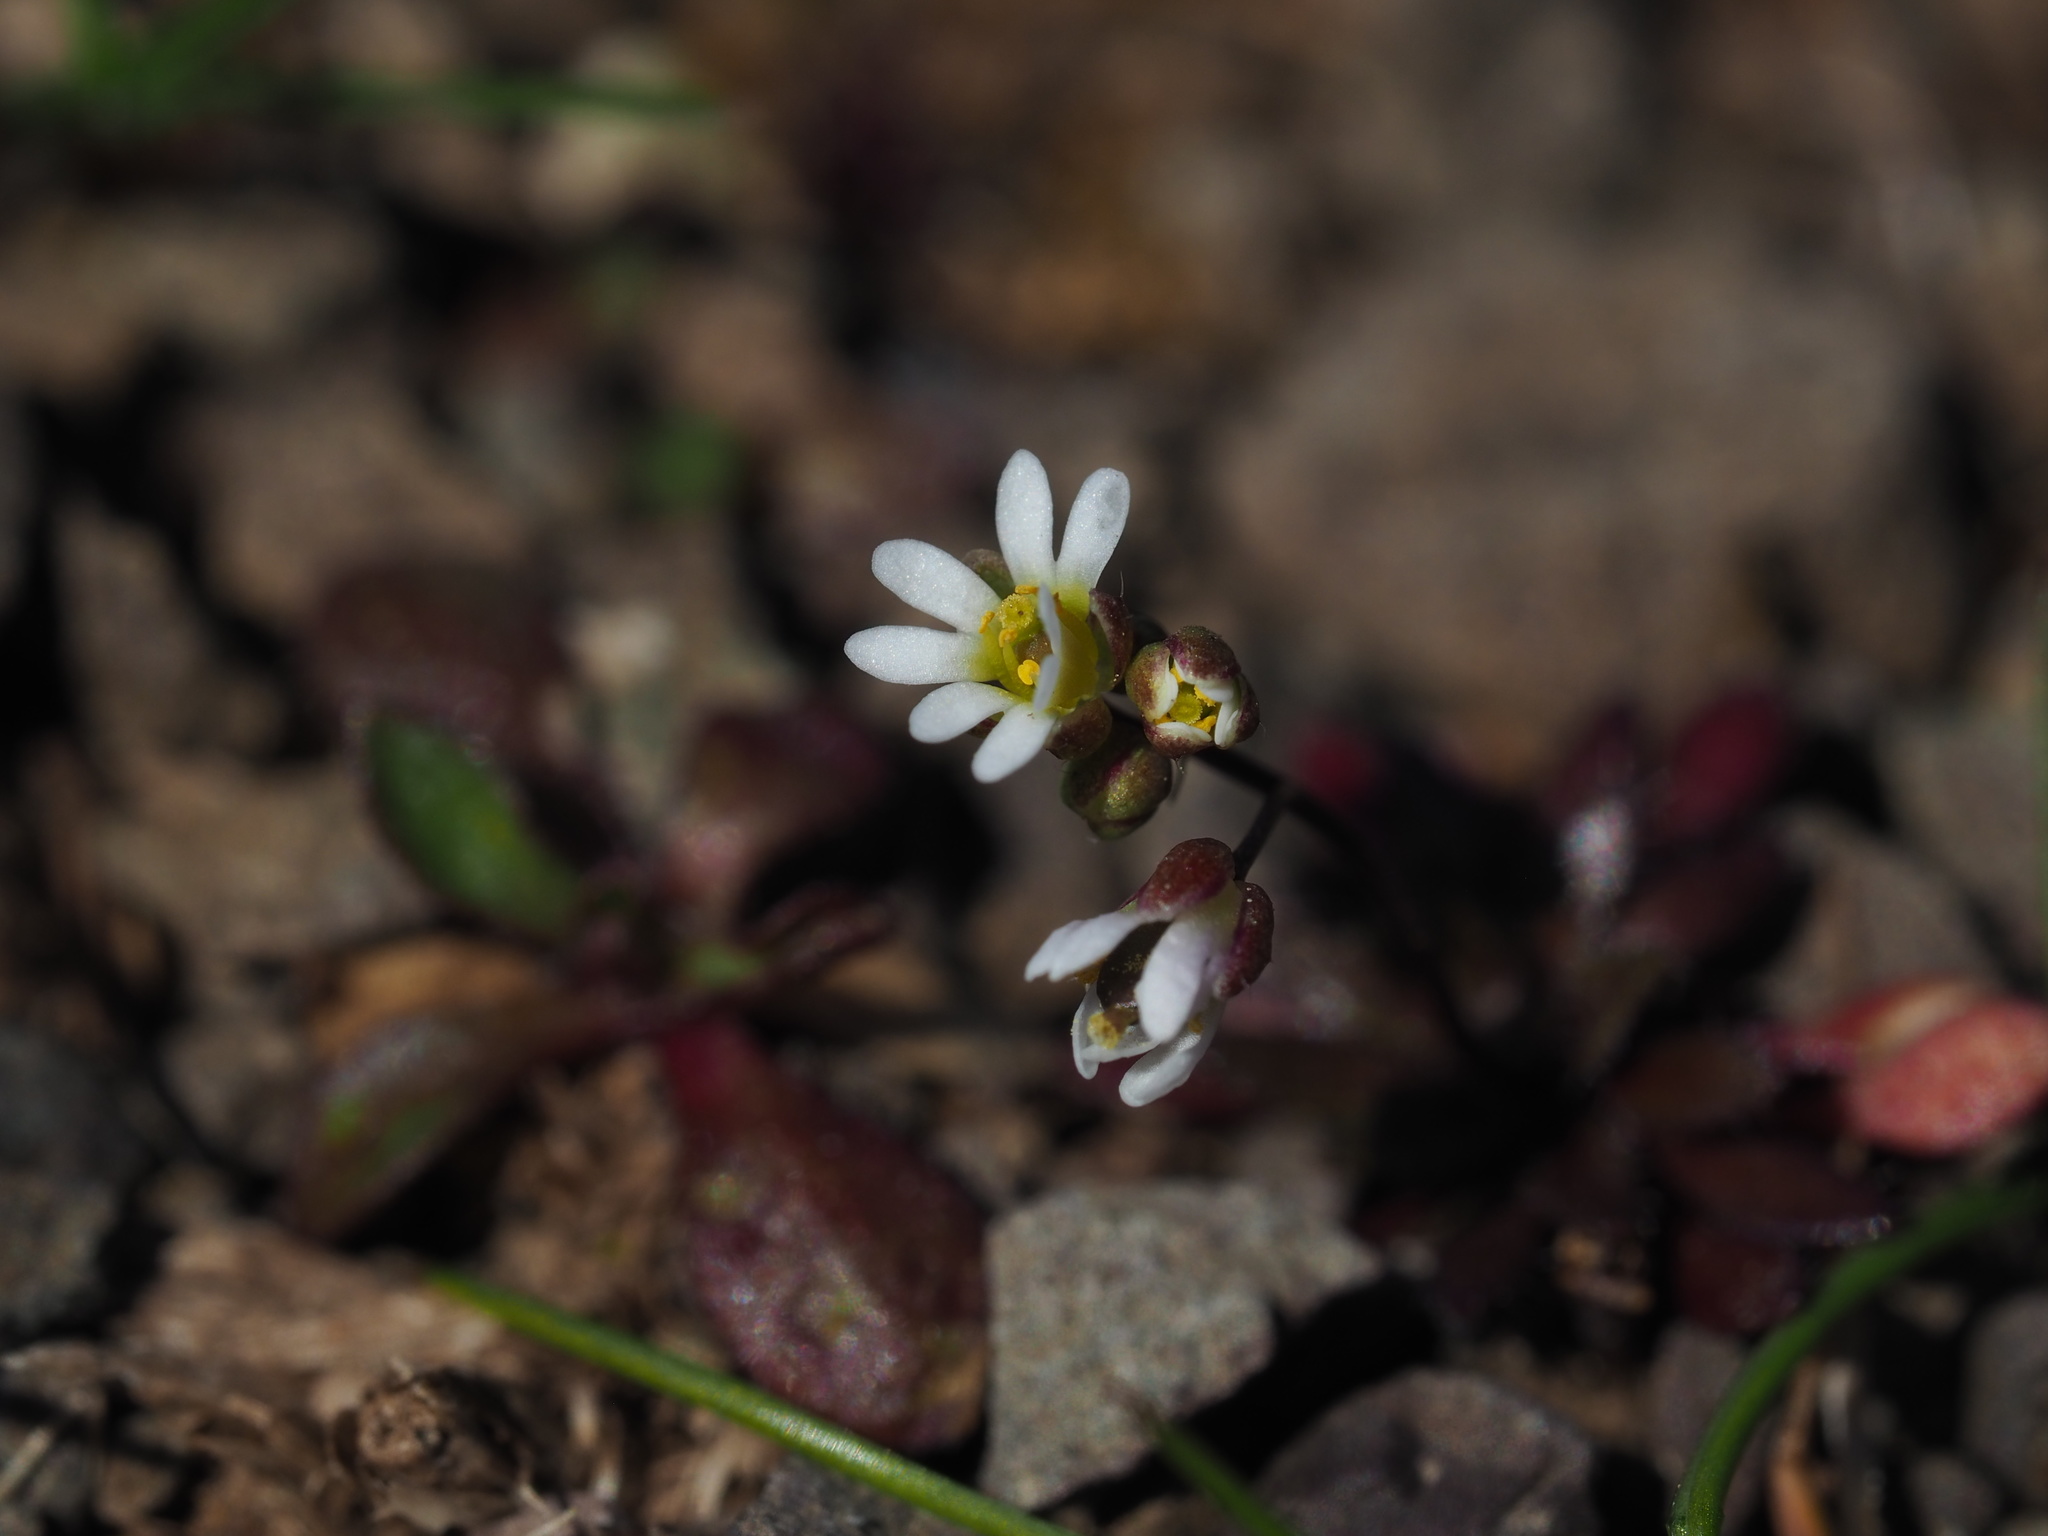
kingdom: Plantae
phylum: Tracheophyta
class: Magnoliopsida
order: Brassicales
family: Brassicaceae
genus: Draba
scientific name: Draba verna
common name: Spring draba
